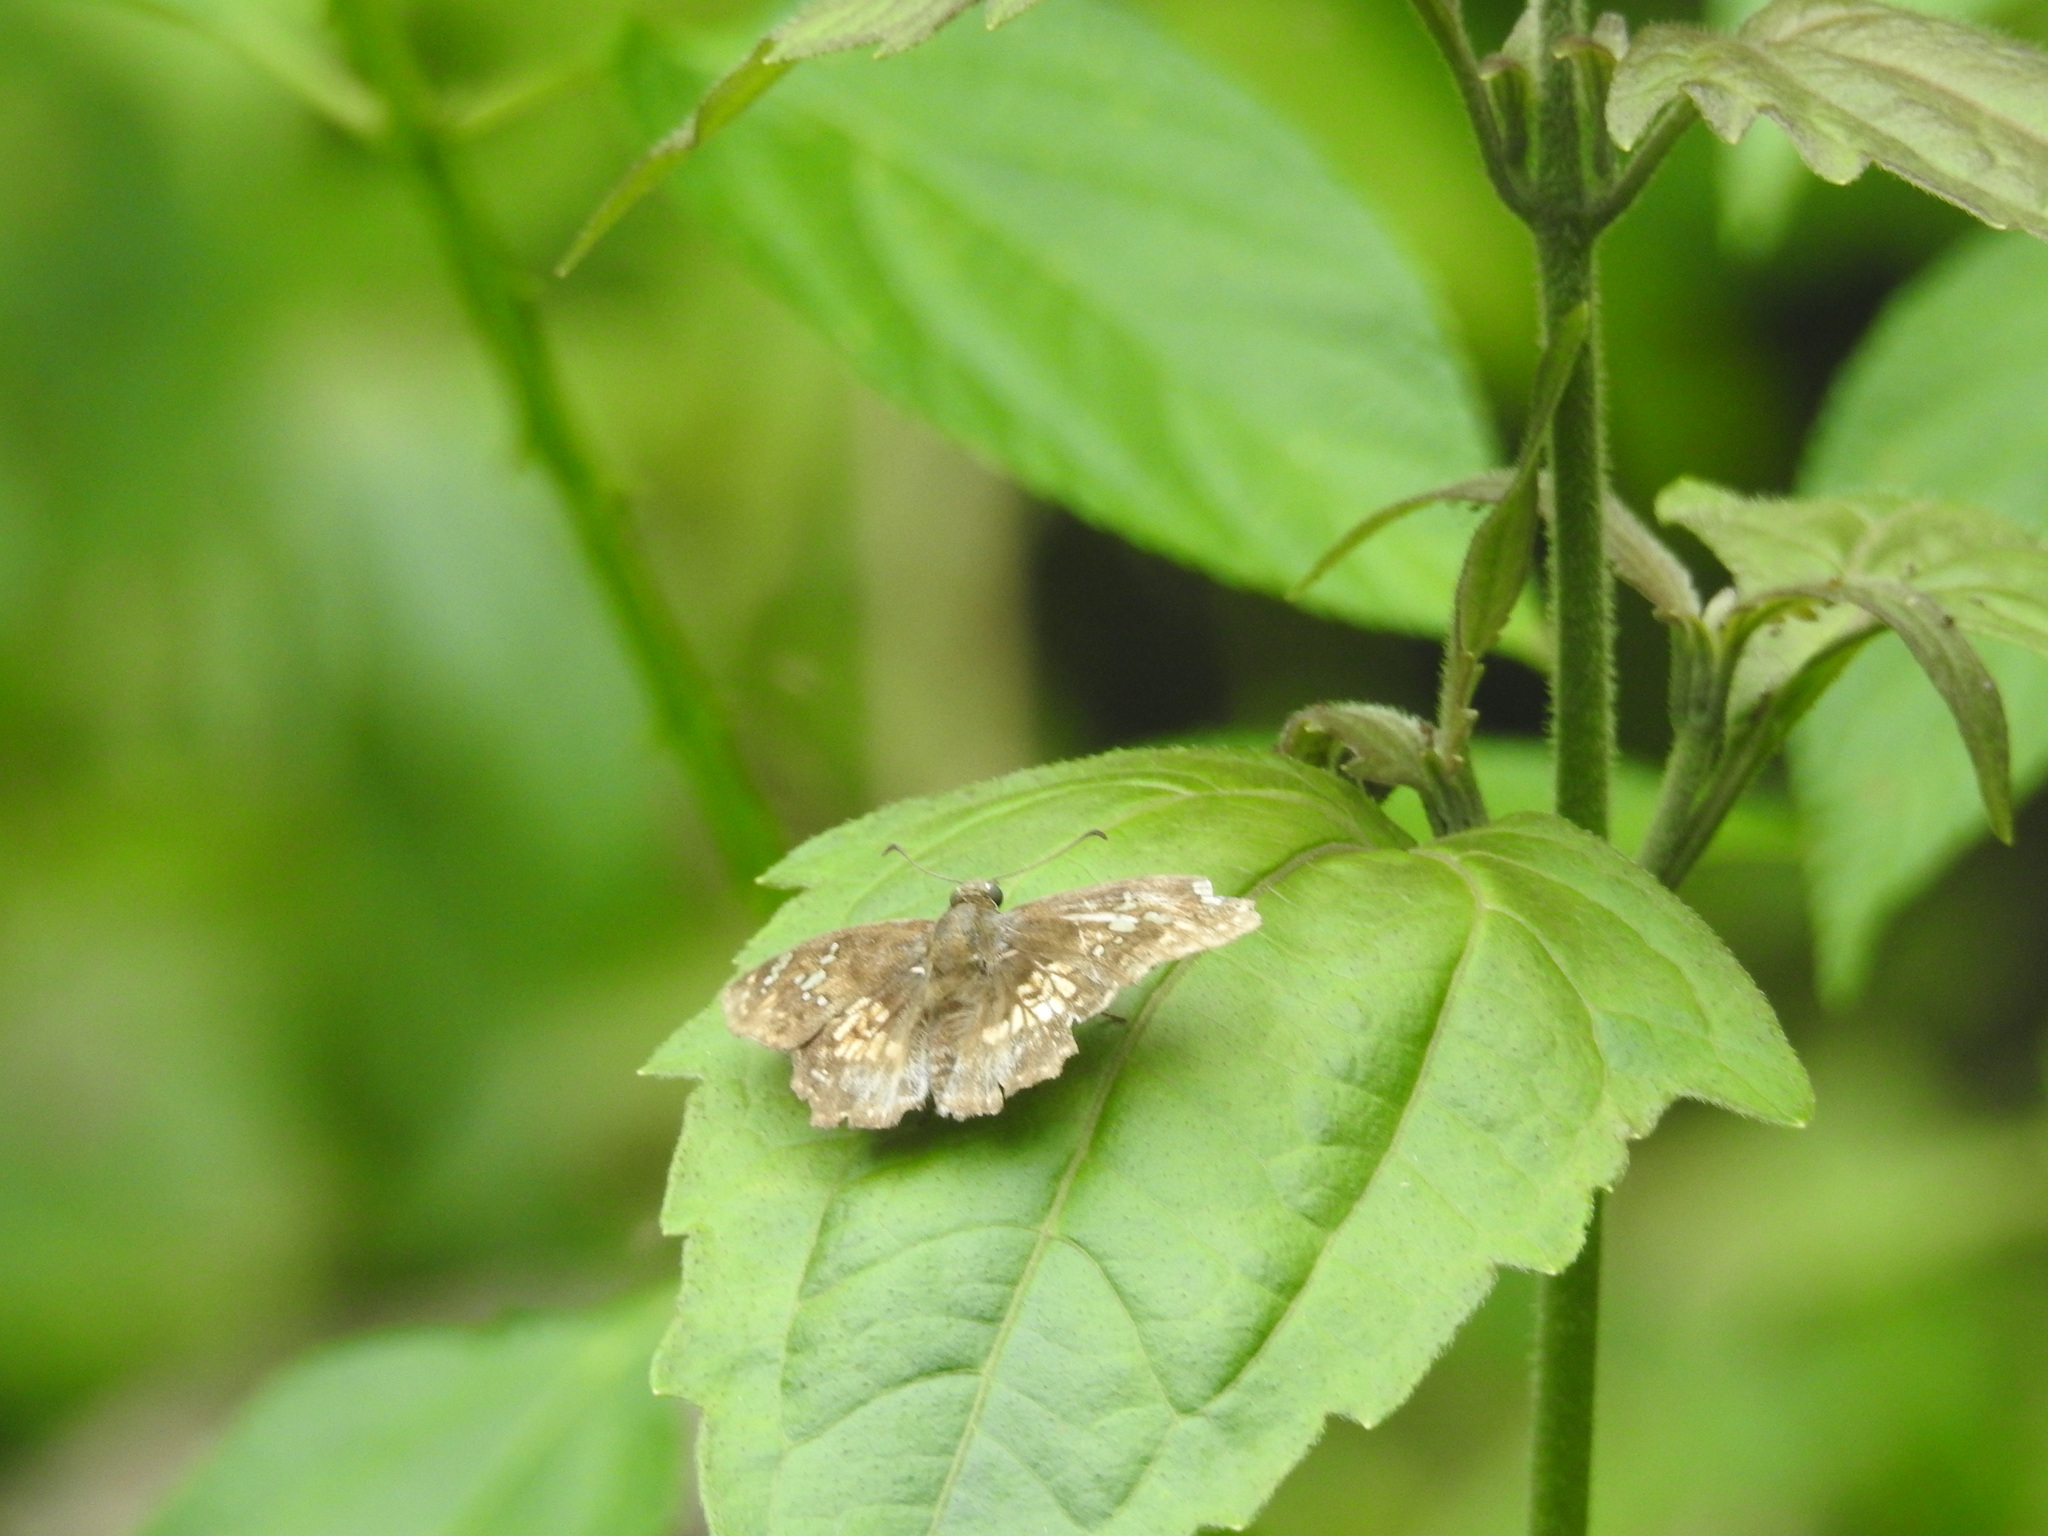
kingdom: Animalia
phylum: Arthropoda
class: Insecta
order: Lepidoptera
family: Hesperiidae
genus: Caprona
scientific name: Caprona ransonnettii
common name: Golden angle
